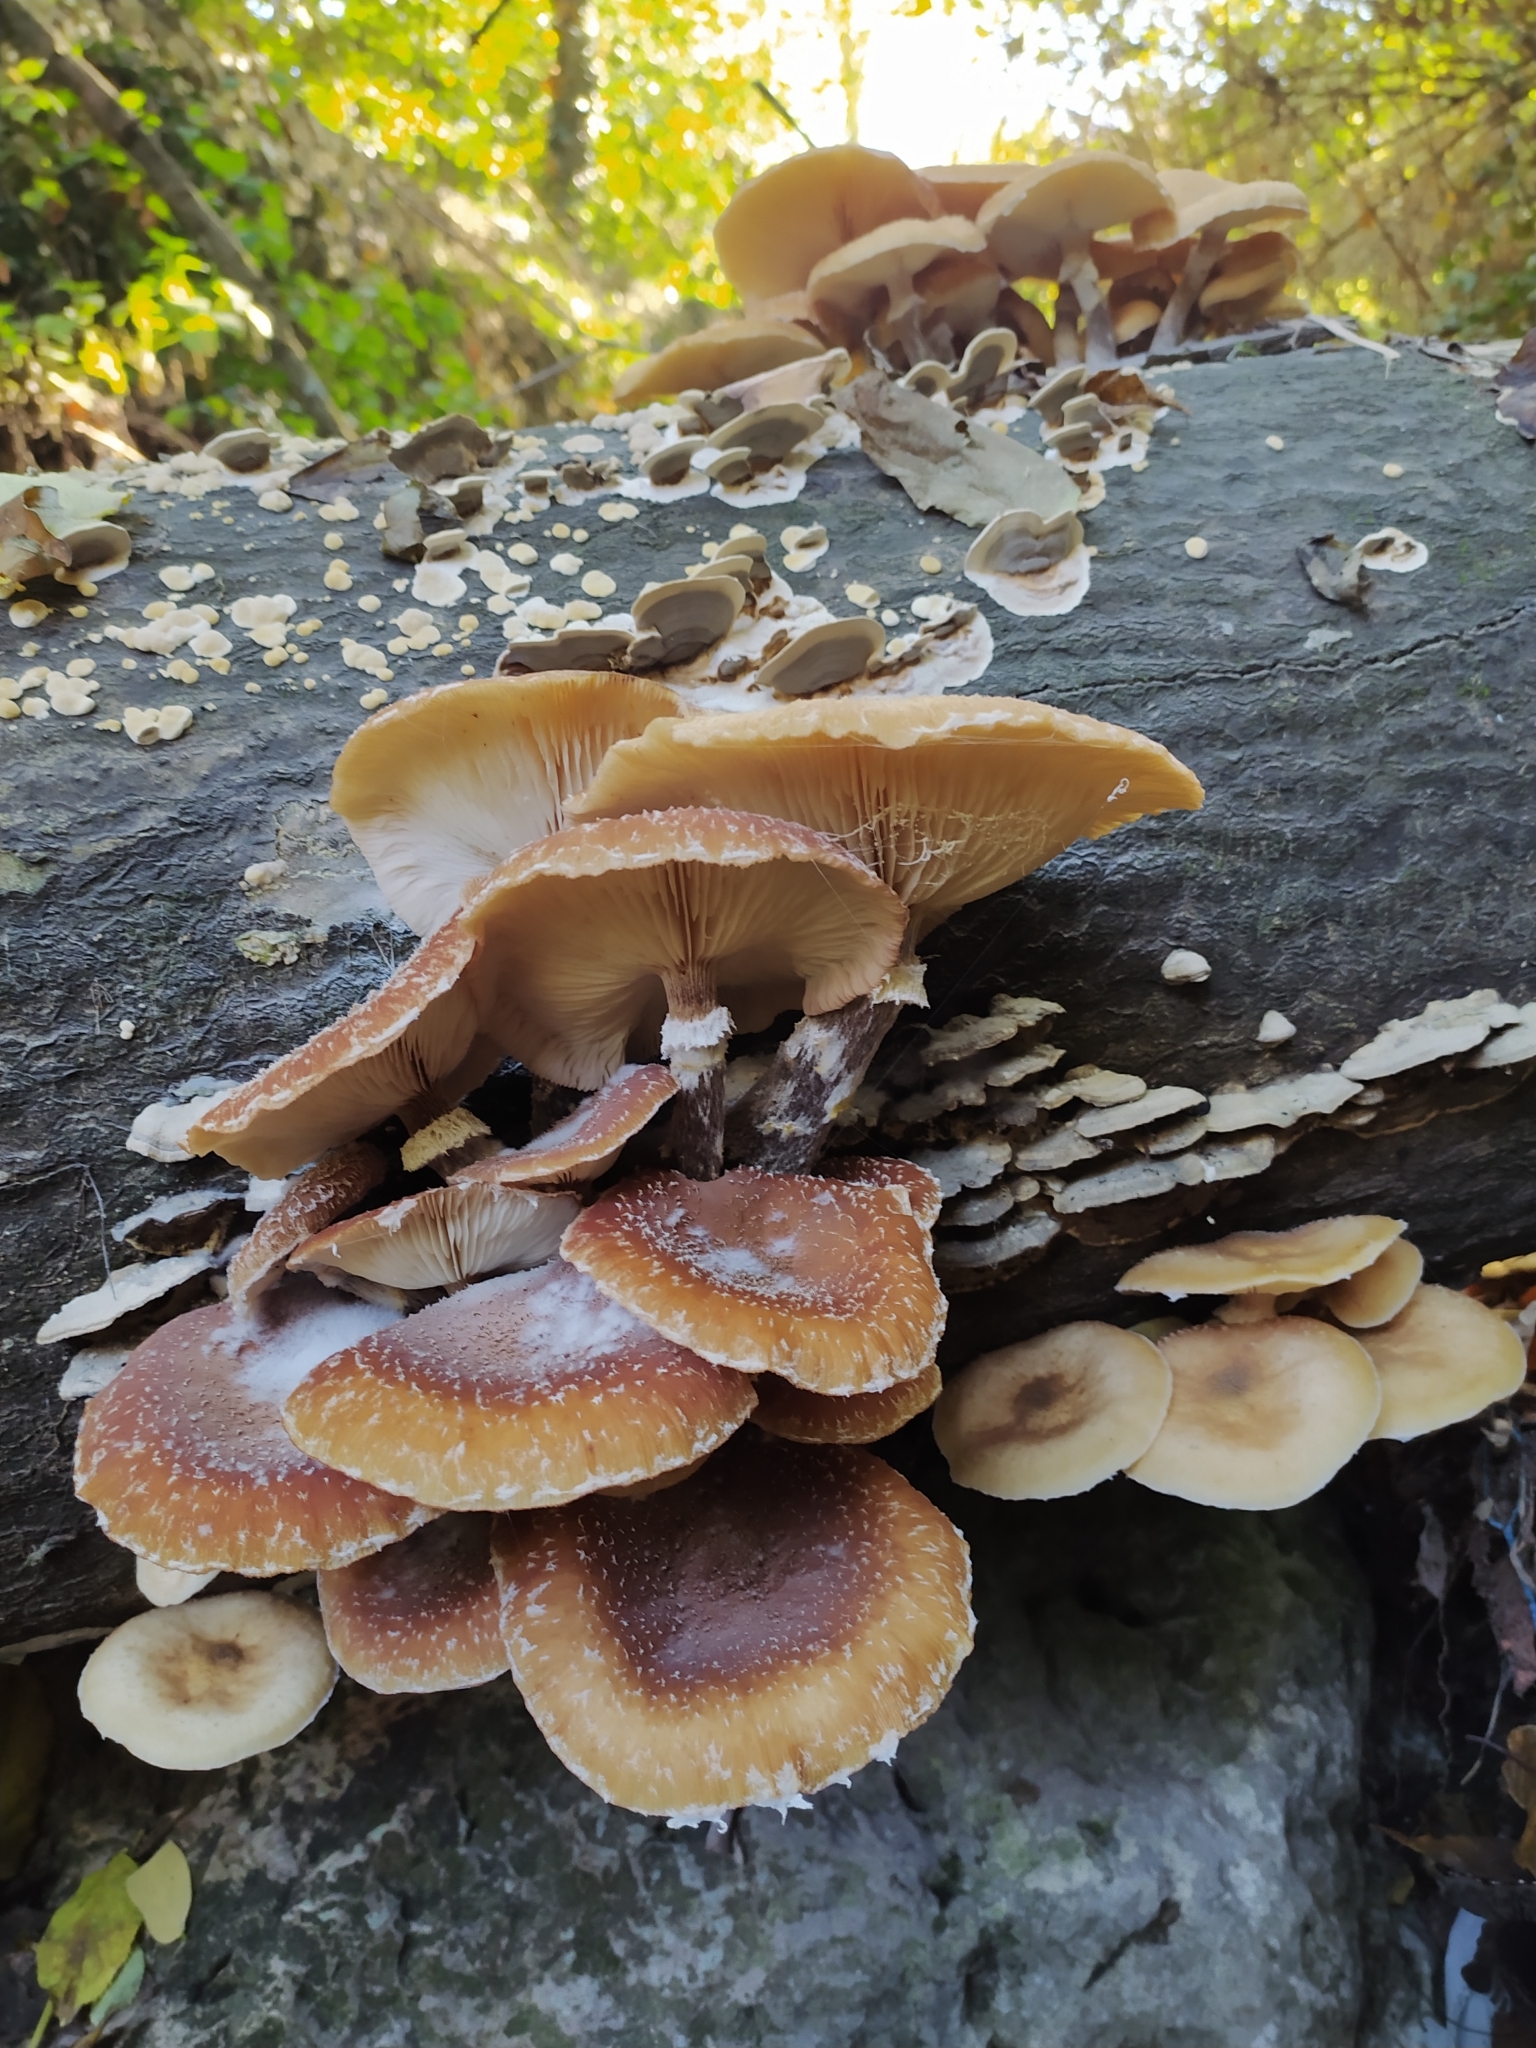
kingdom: Fungi
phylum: Basidiomycota
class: Agaricomycetes
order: Agaricales
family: Physalacriaceae
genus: Armillaria
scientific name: Armillaria mellea
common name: Honey fungus
